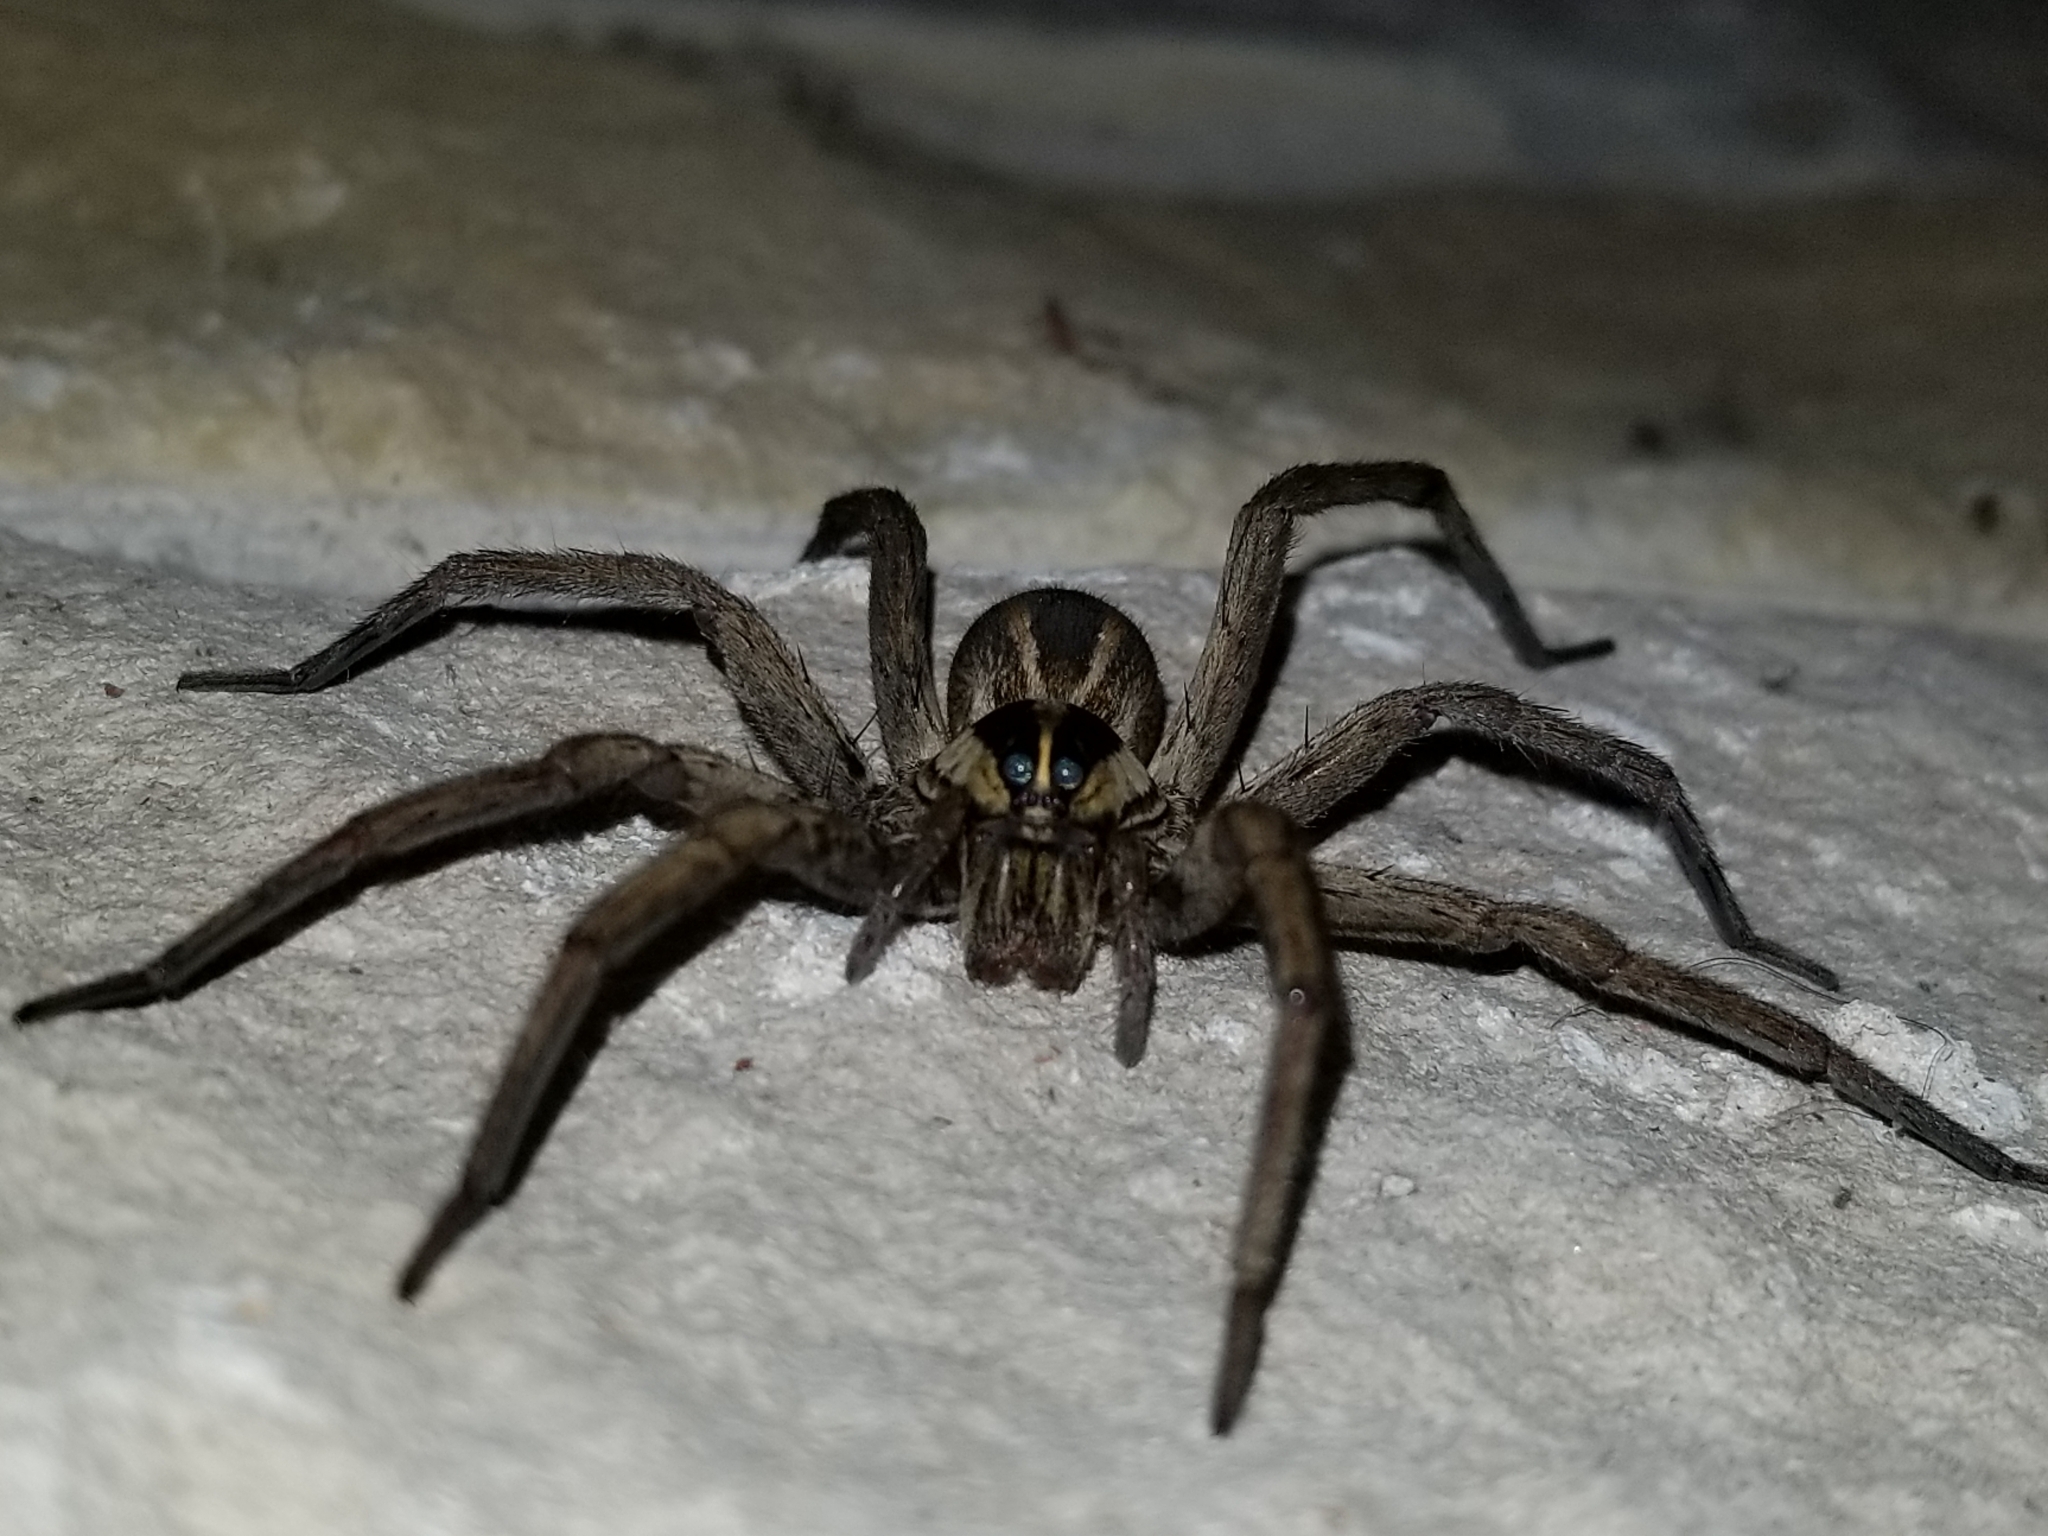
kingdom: Animalia
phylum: Arthropoda
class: Arachnida
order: Araneae
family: Lycosidae
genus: Rabidosa
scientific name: Rabidosa rabida
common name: Rabid wolf spider
